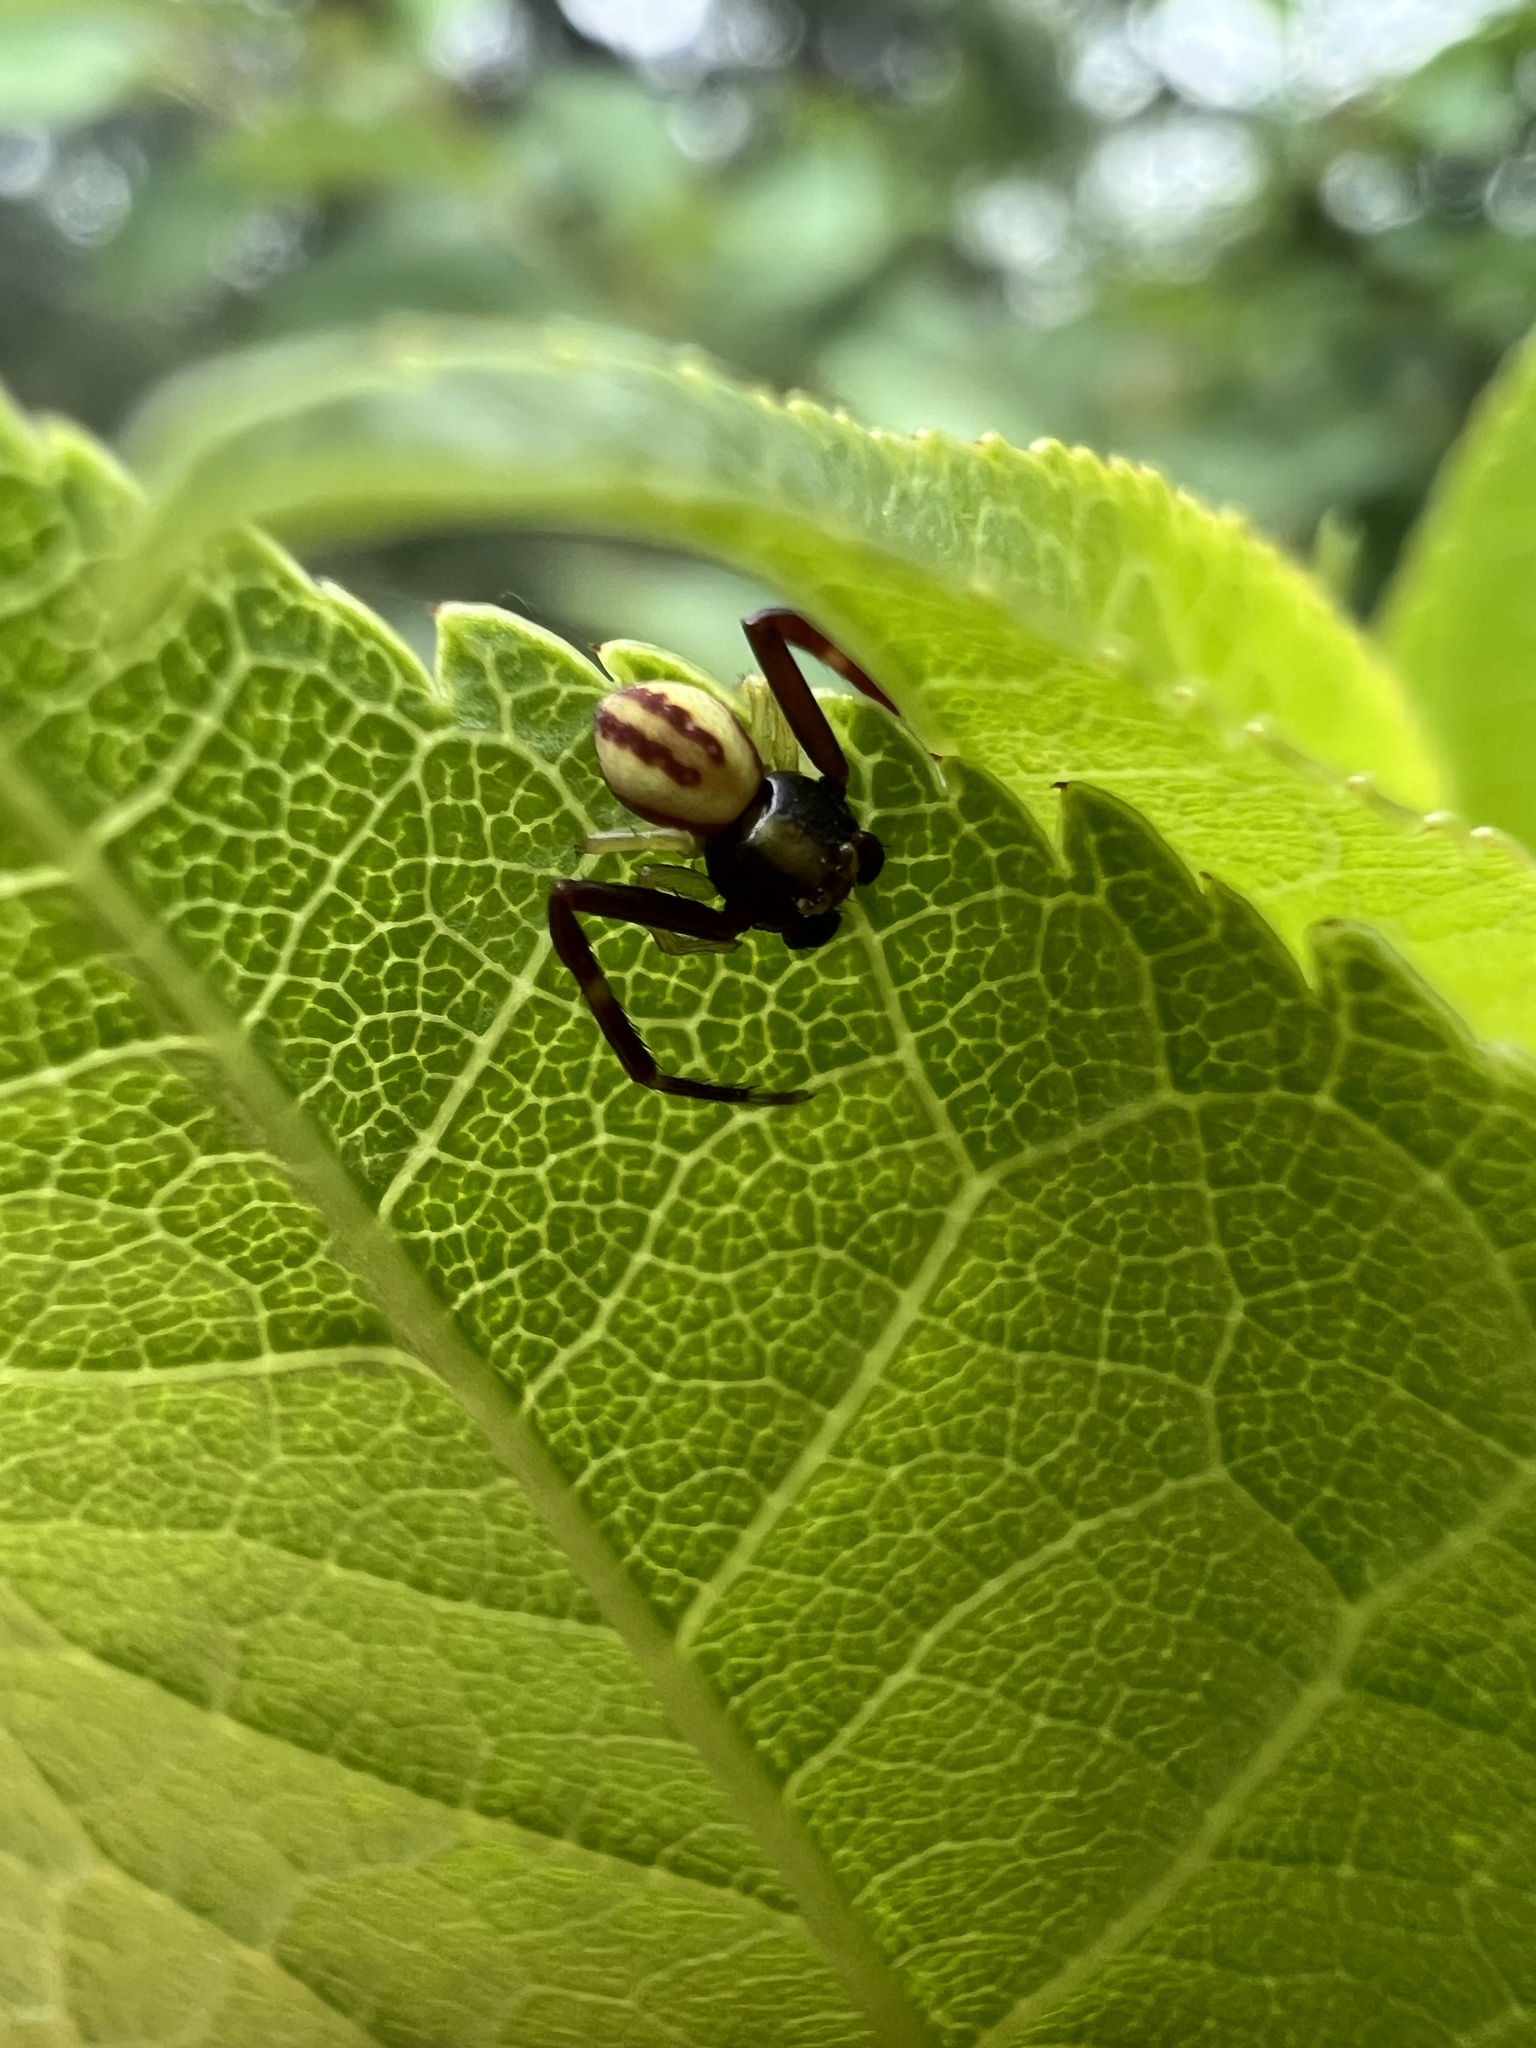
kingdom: Animalia
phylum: Arthropoda
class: Arachnida
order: Araneae
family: Thomisidae
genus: Misumena
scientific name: Misumena vatia
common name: Goldenrod crab spider
